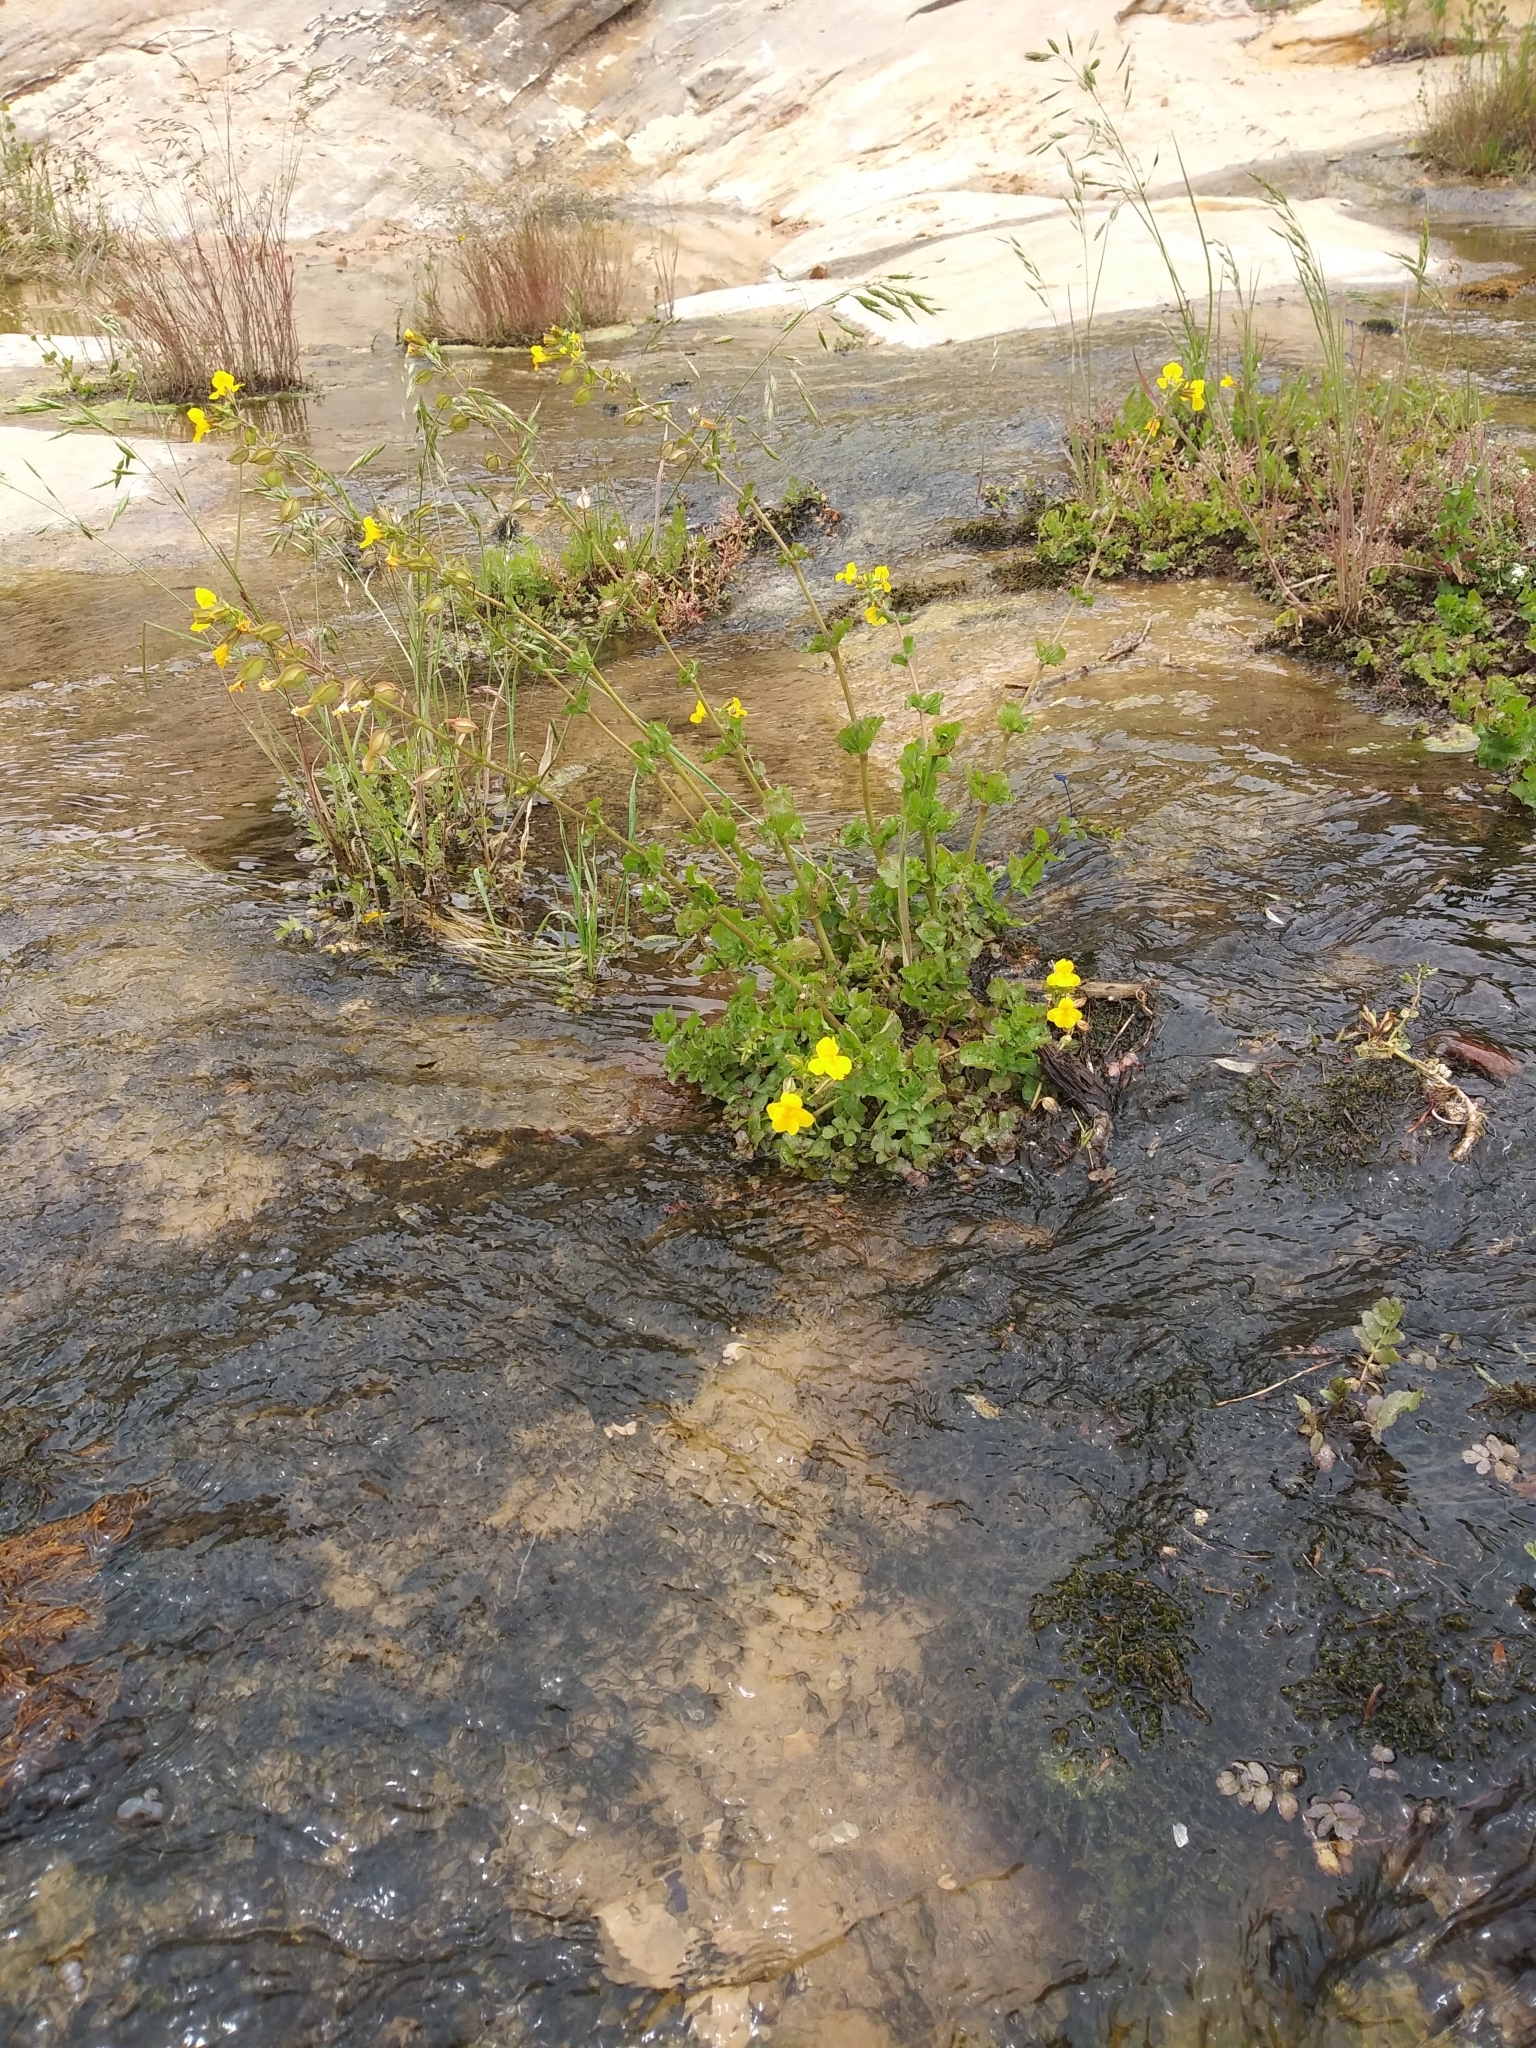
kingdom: Plantae
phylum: Tracheophyta
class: Magnoliopsida
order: Lamiales
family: Phrymaceae
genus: Erythranthe
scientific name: Erythranthe guttata
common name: Monkeyflower
